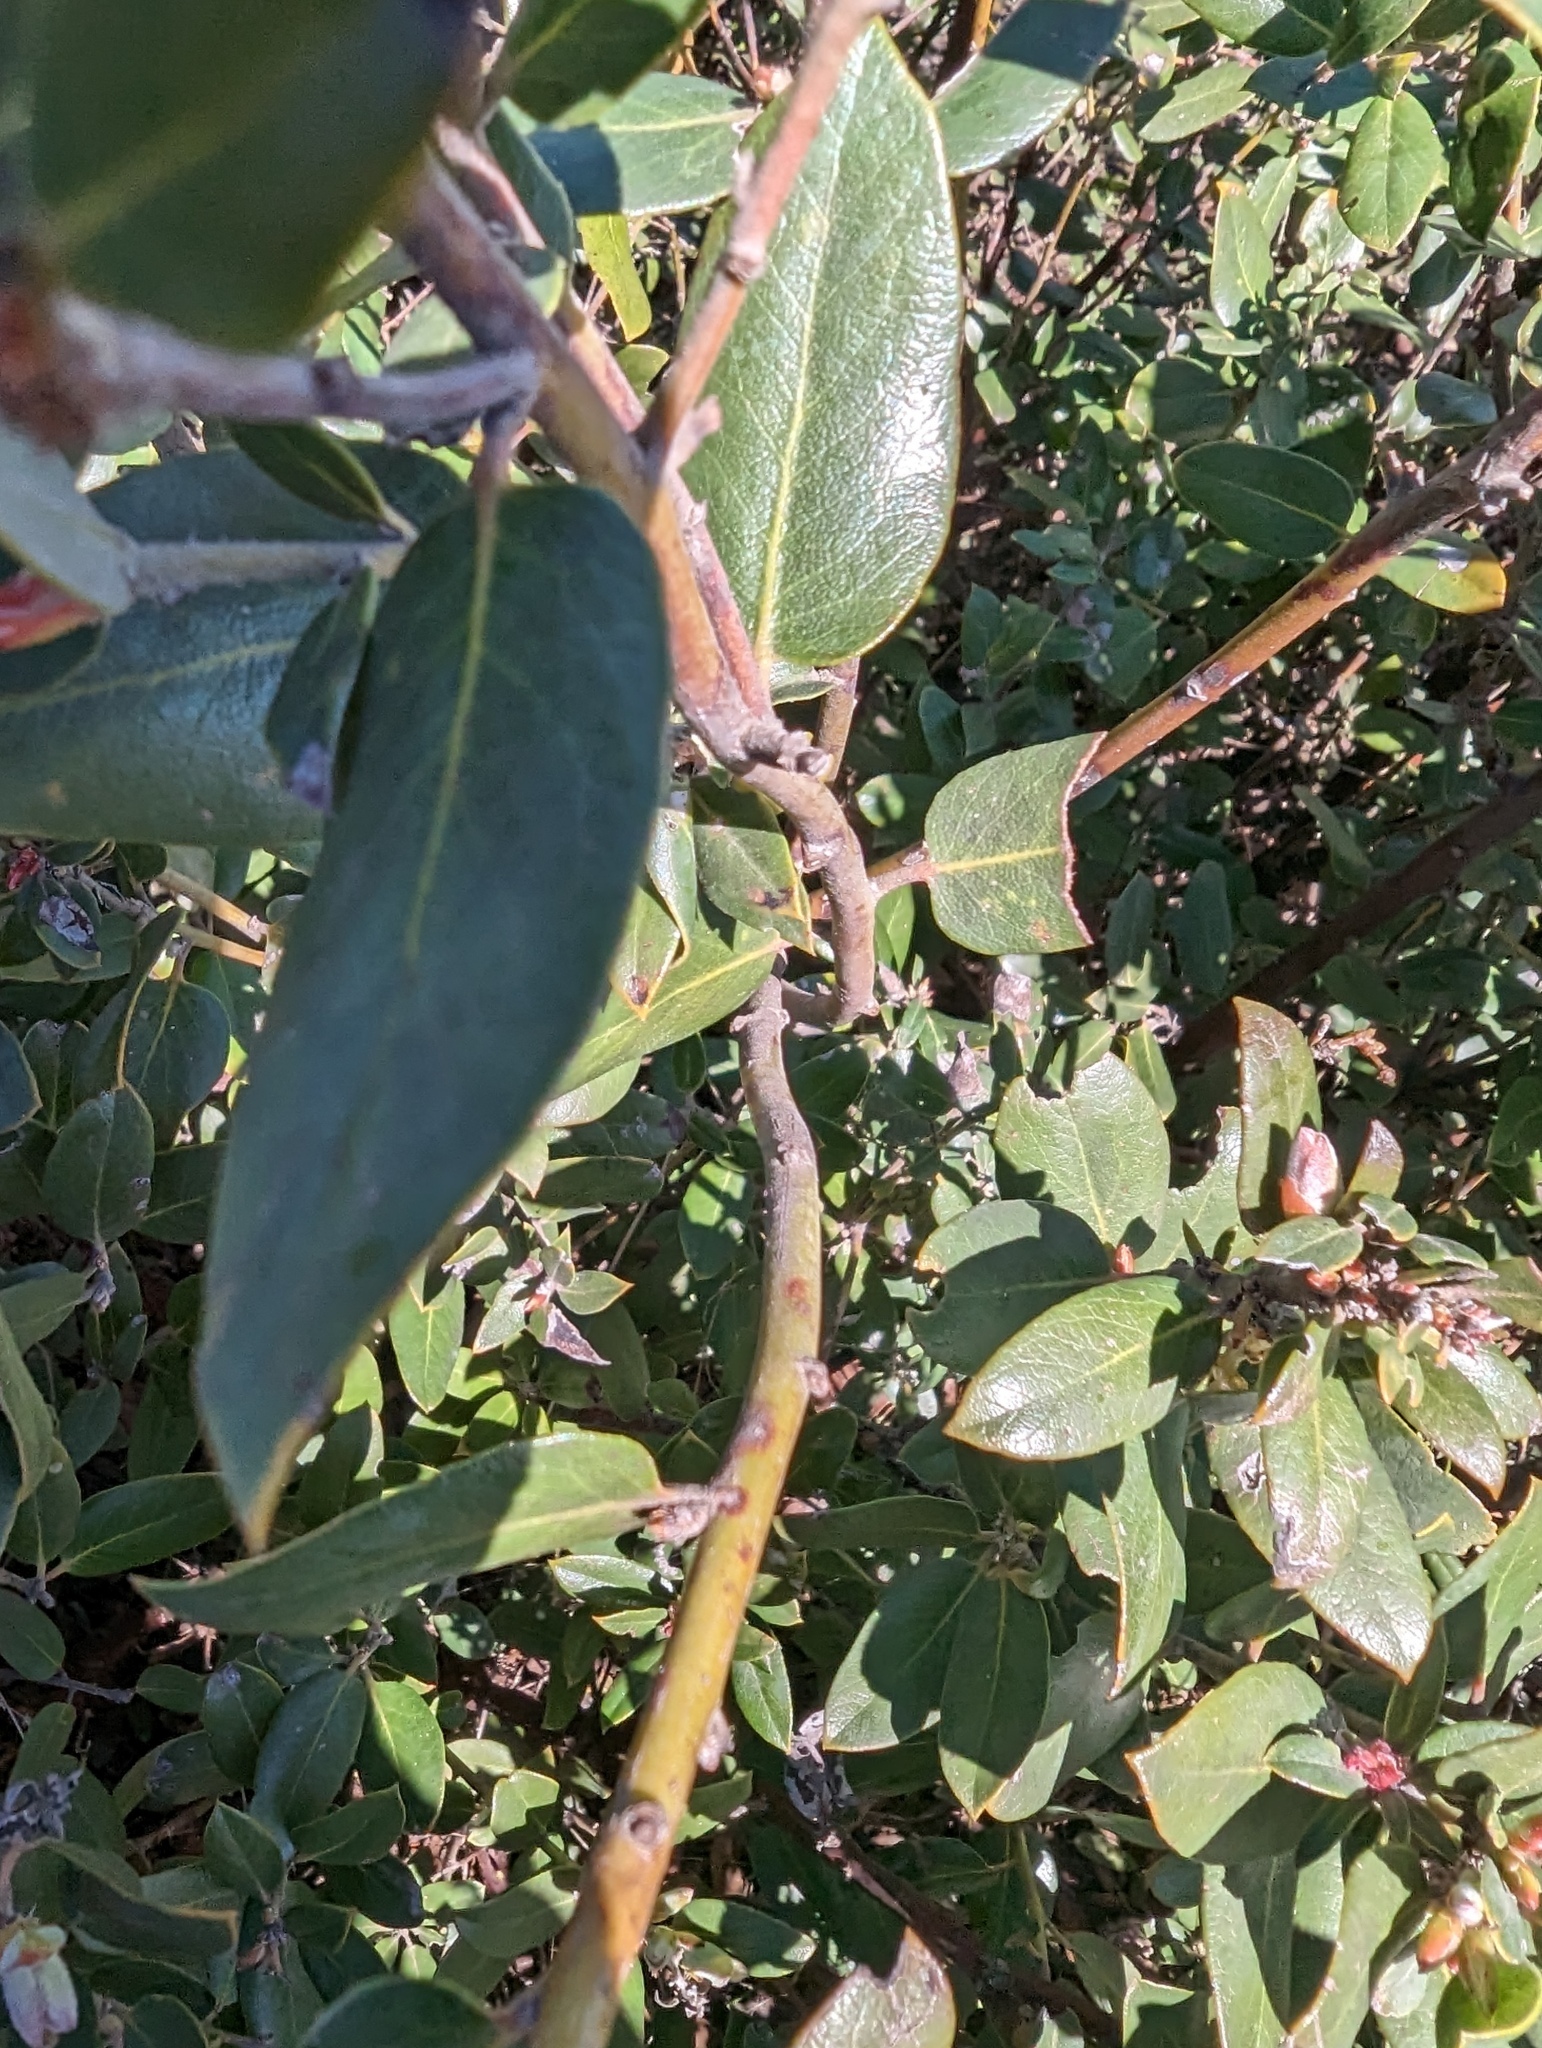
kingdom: Plantae
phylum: Tracheophyta
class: Magnoliopsida
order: Ericales
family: Ericaceae
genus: Arctostaphylos
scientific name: Arctostaphylos tomentosa
